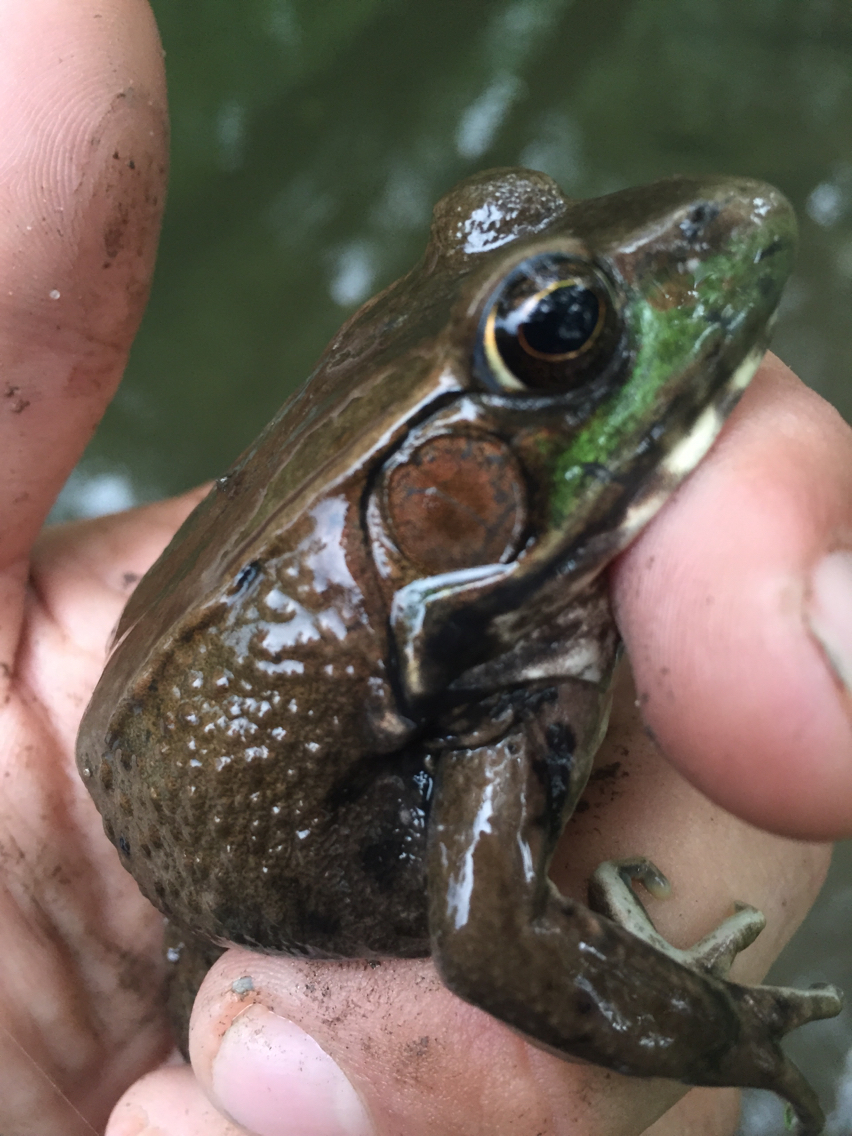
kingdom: Animalia
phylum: Chordata
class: Amphibia
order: Anura
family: Ranidae
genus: Lithobates
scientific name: Lithobates clamitans
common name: Green frog
